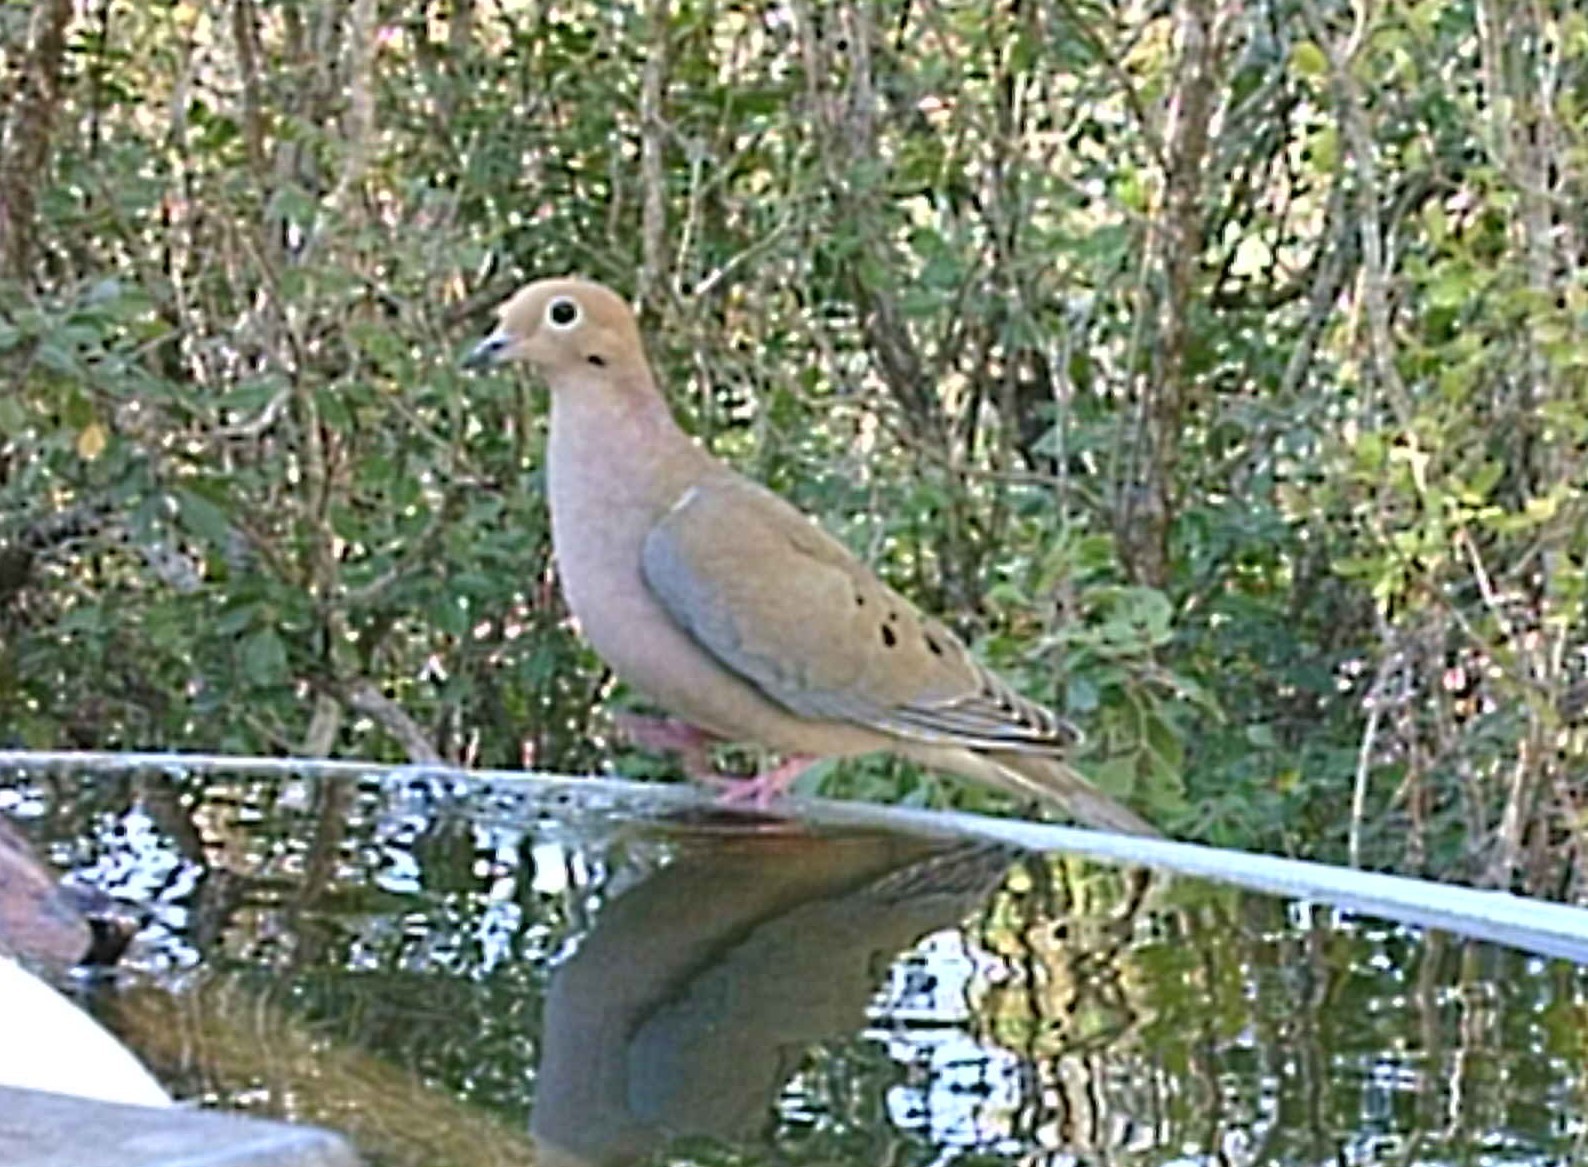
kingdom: Animalia
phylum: Chordata
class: Aves
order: Columbiformes
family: Columbidae
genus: Zenaida
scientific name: Zenaida macroura
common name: Mourning dove
